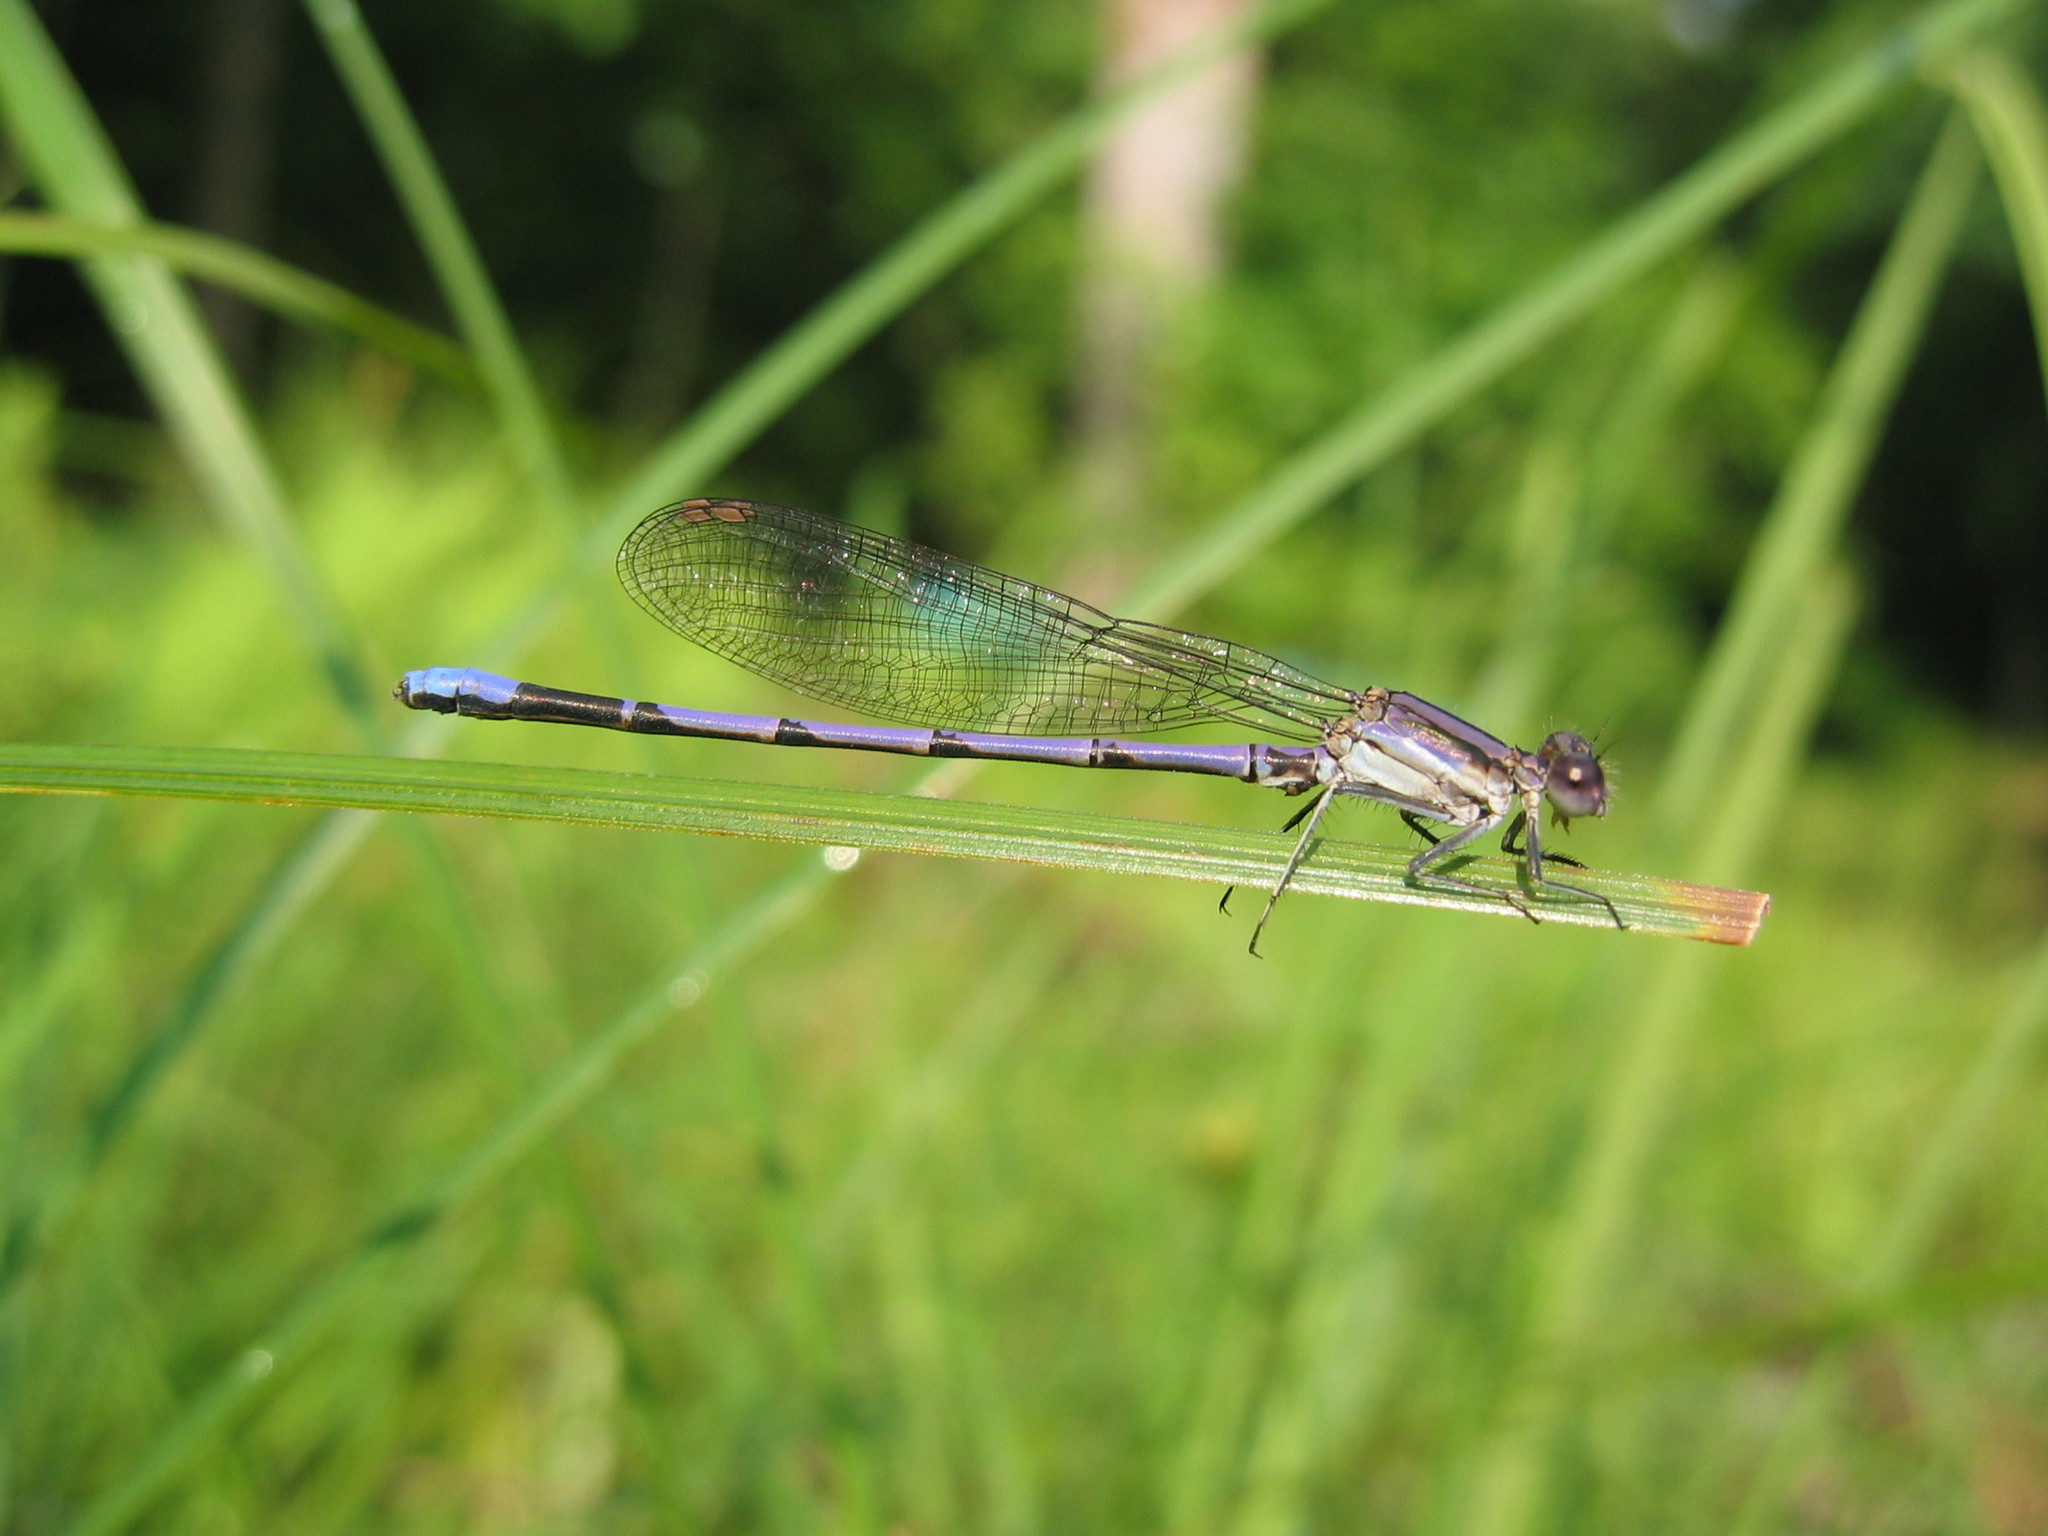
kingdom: Animalia
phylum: Arthropoda
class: Insecta
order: Odonata
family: Coenagrionidae
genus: Argia
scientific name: Argia fumipennis
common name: Variable dancer
